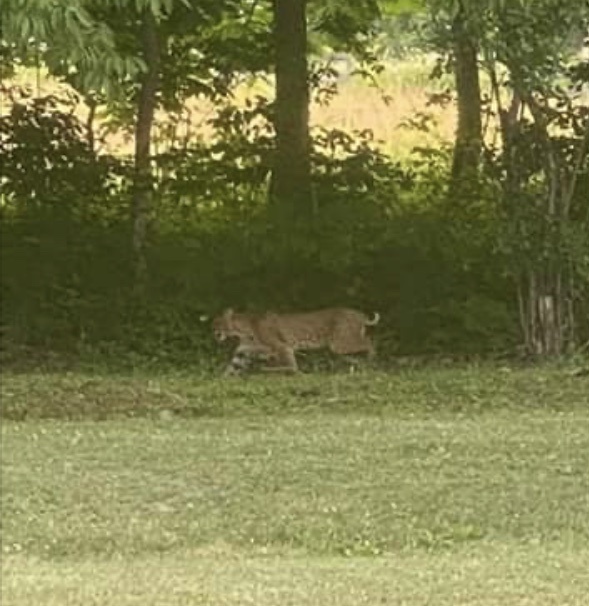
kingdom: Animalia
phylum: Chordata
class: Mammalia
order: Carnivora
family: Felidae
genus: Lynx
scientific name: Lynx rufus
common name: Bobcat
